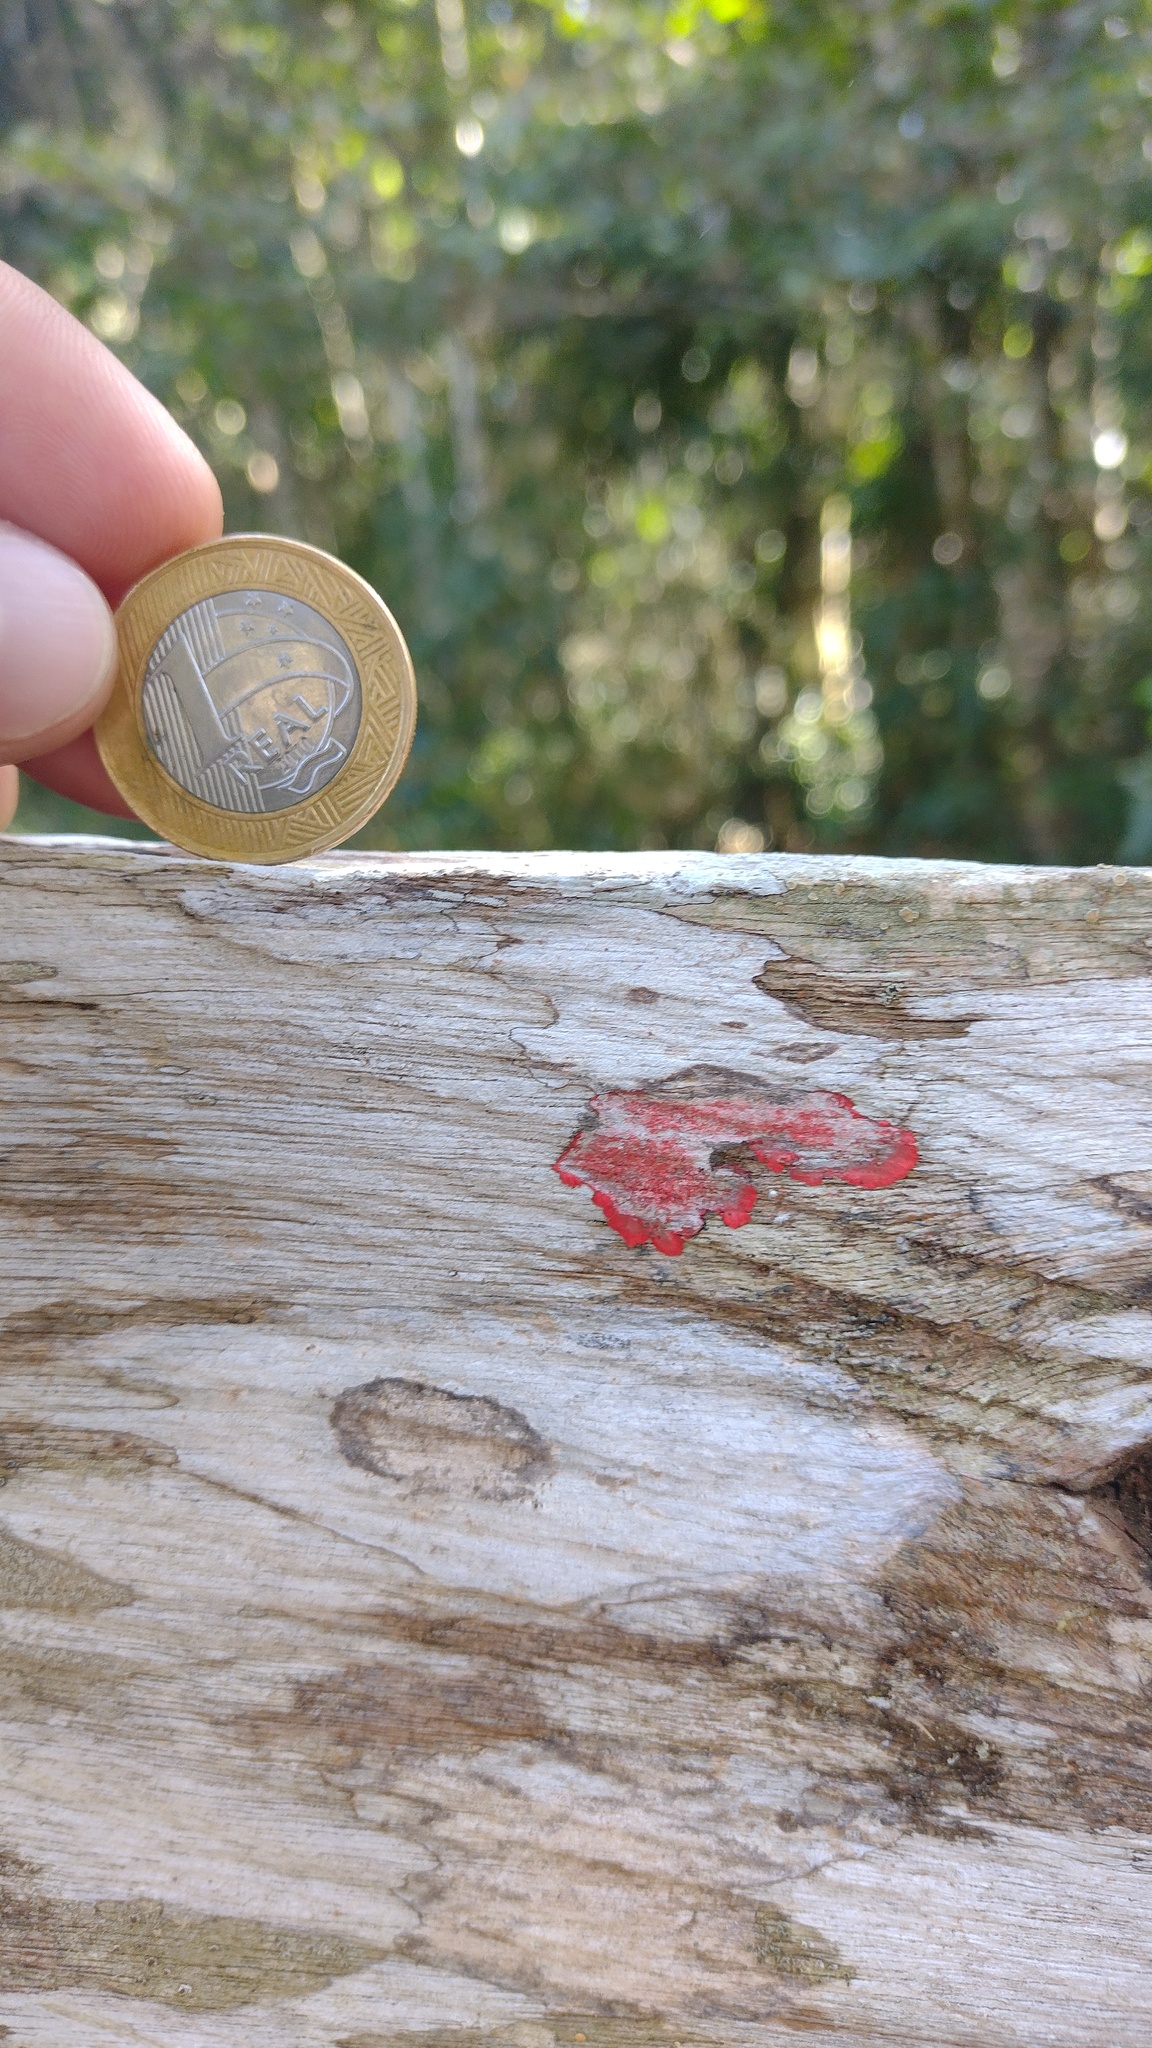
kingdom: Fungi
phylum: Ascomycota
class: Arthoniomycetes
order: Arthoniales
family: Arthoniaceae
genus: Herpothallon
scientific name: Herpothallon rubrocinctum
